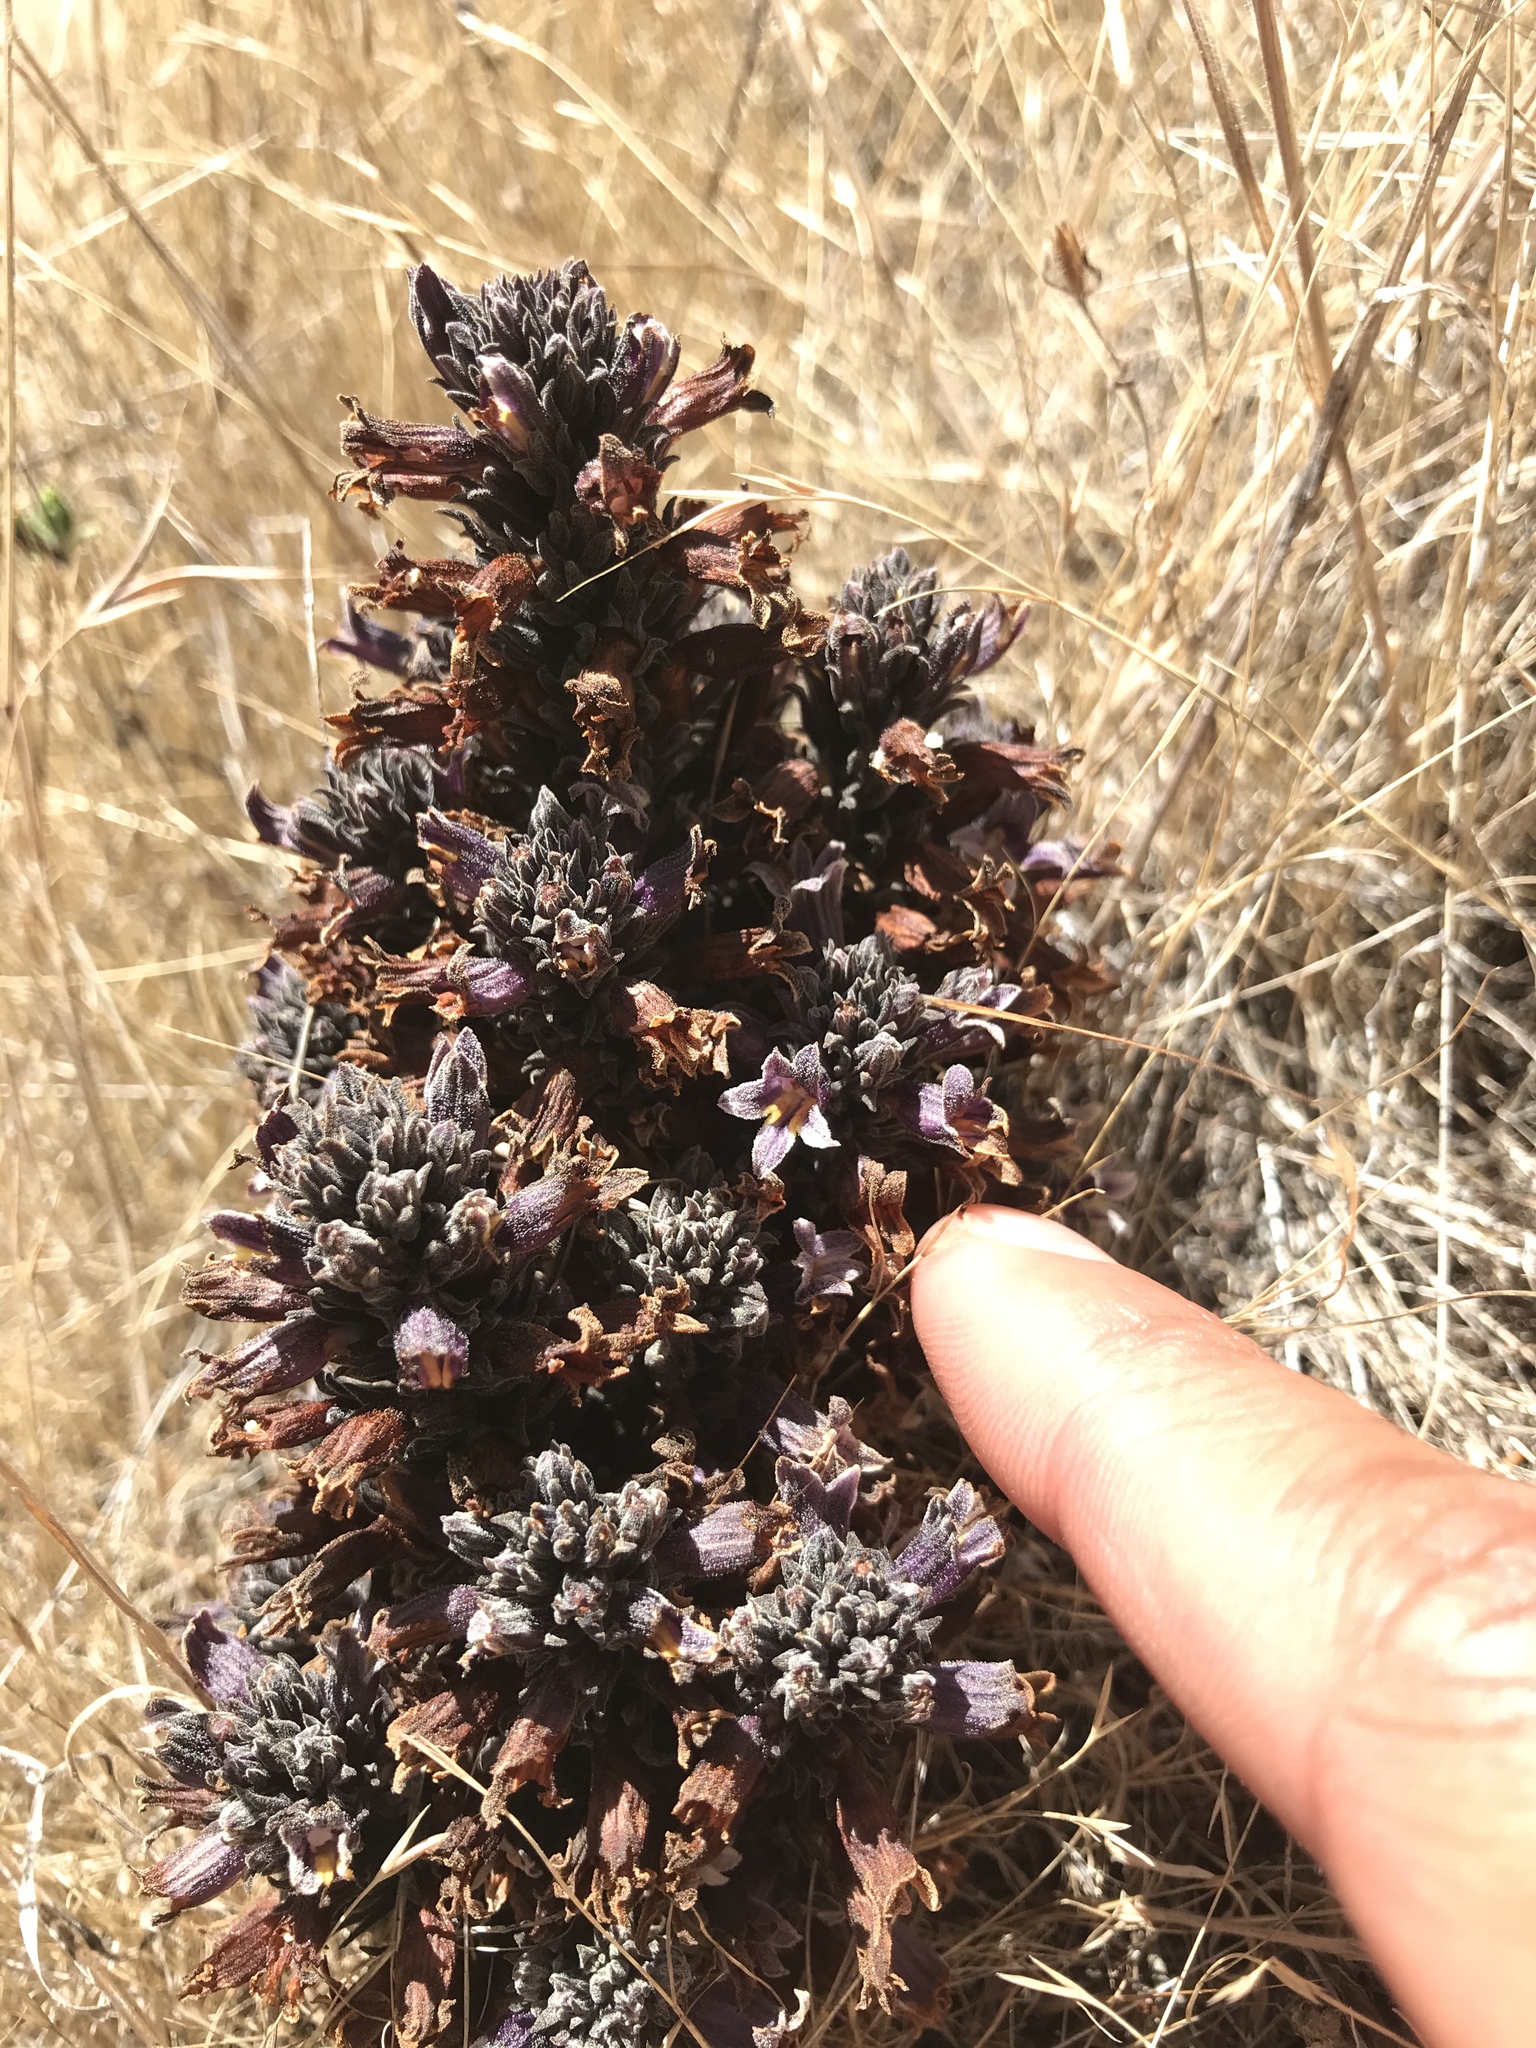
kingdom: Plantae
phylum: Tracheophyta
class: Magnoliopsida
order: Lamiales
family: Orobanchaceae
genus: Aphyllon
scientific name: Aphyllon tuberosum
